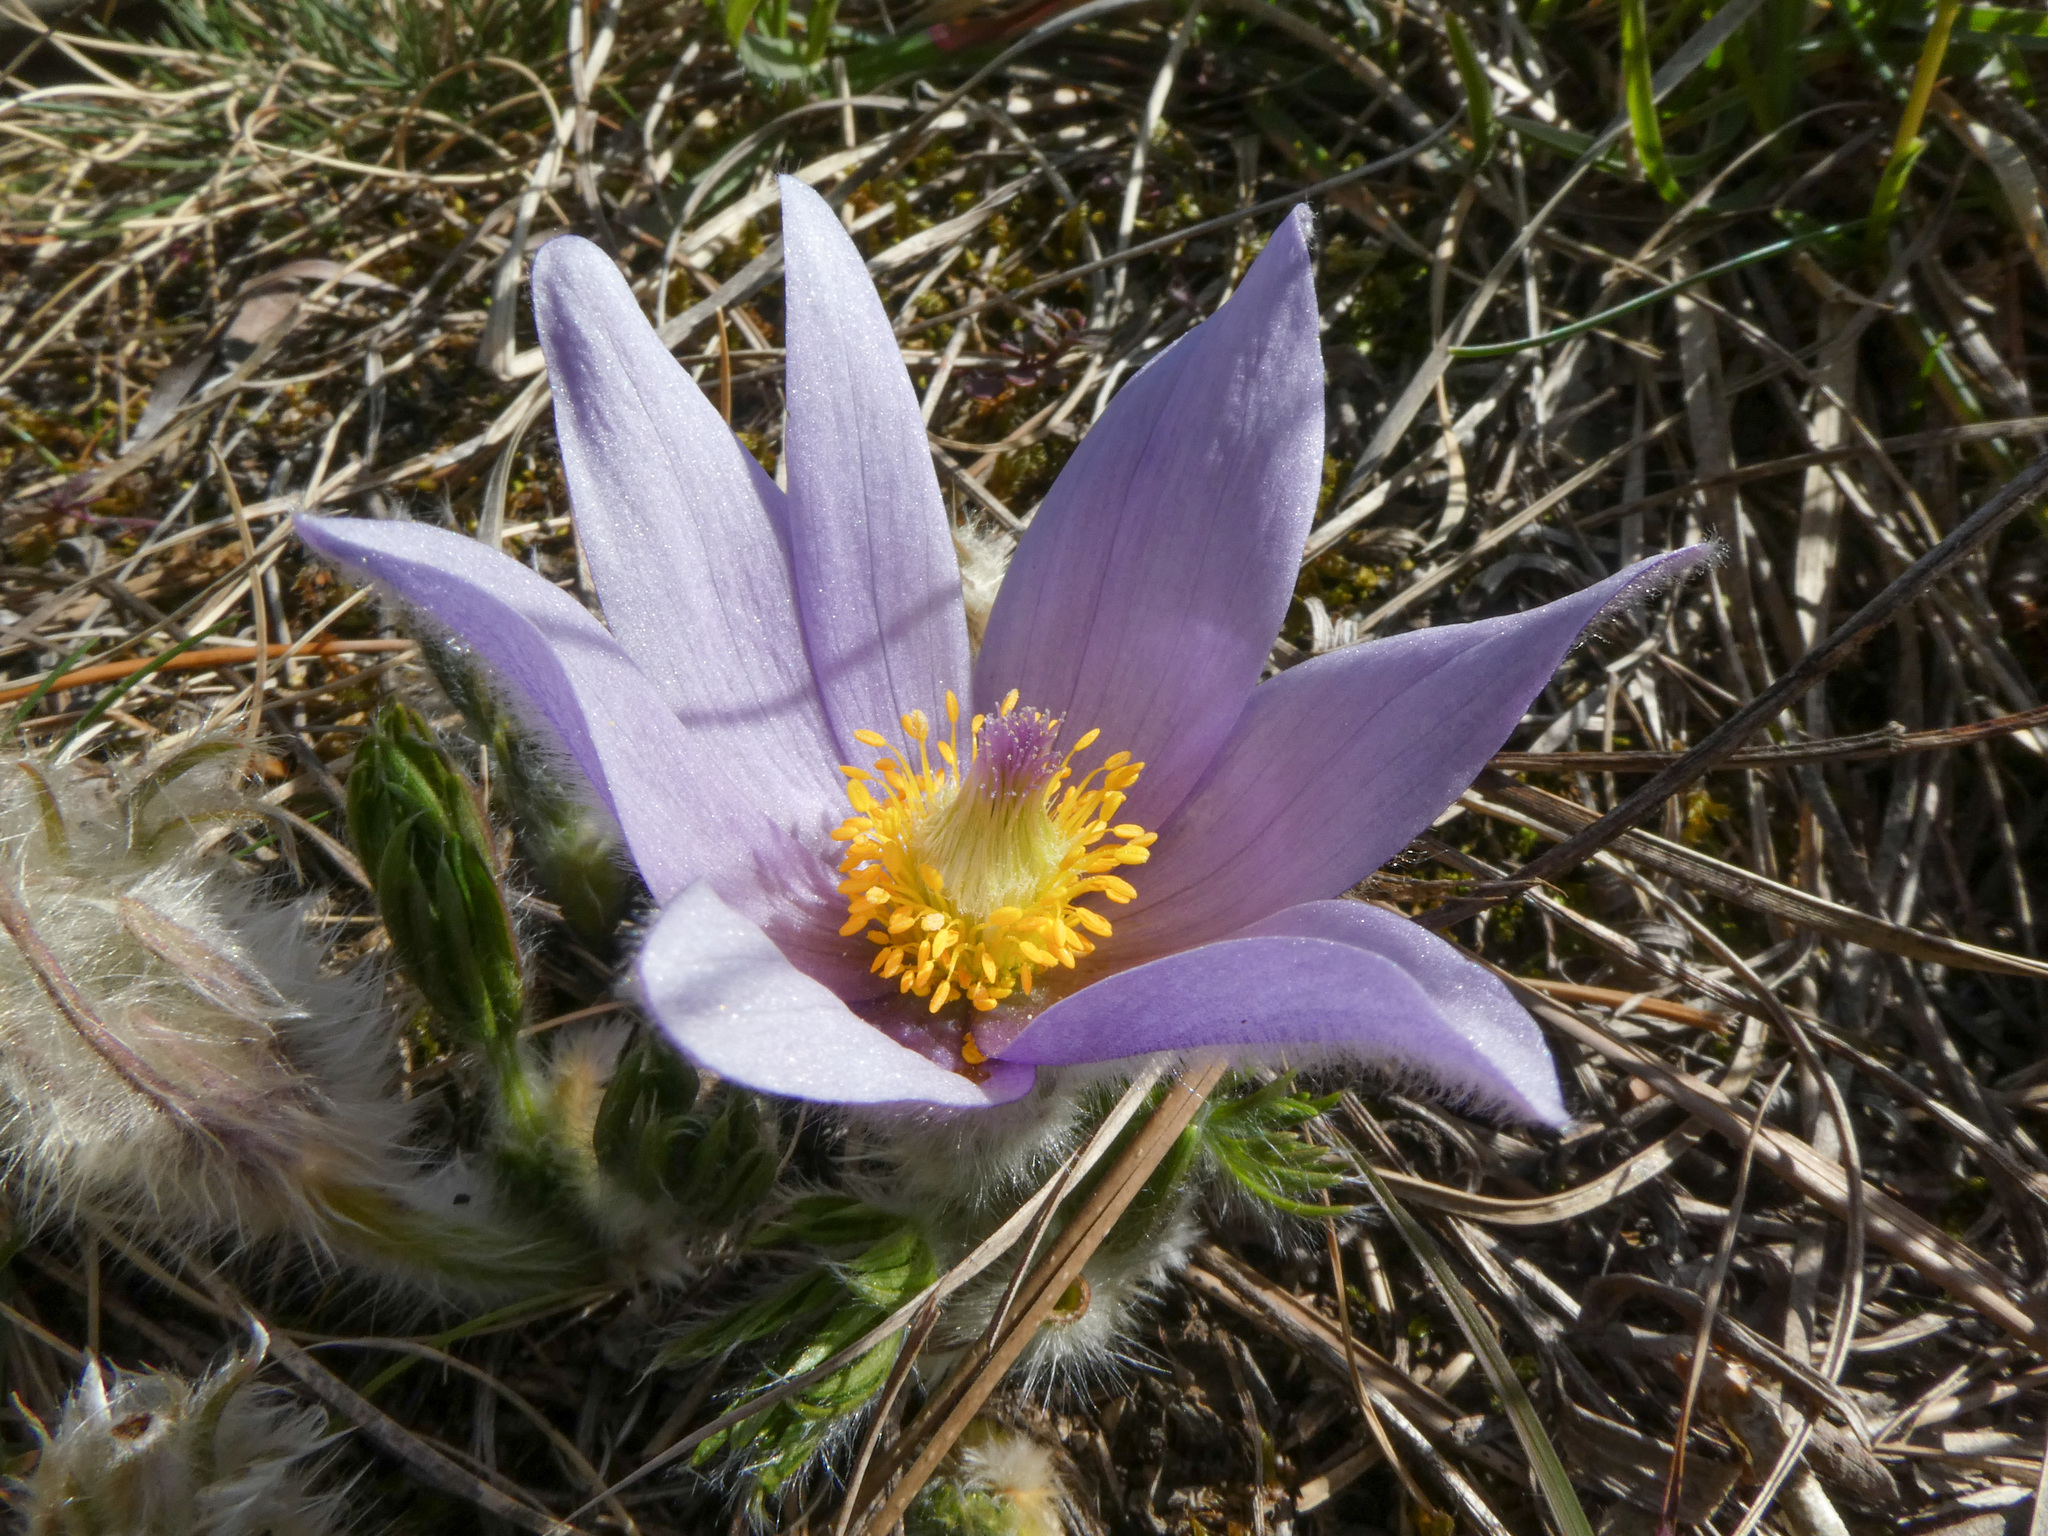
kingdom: Plantae
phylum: Tracheophyta
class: Magnoliopsida
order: Ranunculales
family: Ranunculaceae
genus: Pulsatilla
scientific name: Pulsatilla grandis
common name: Greater pasque flower
